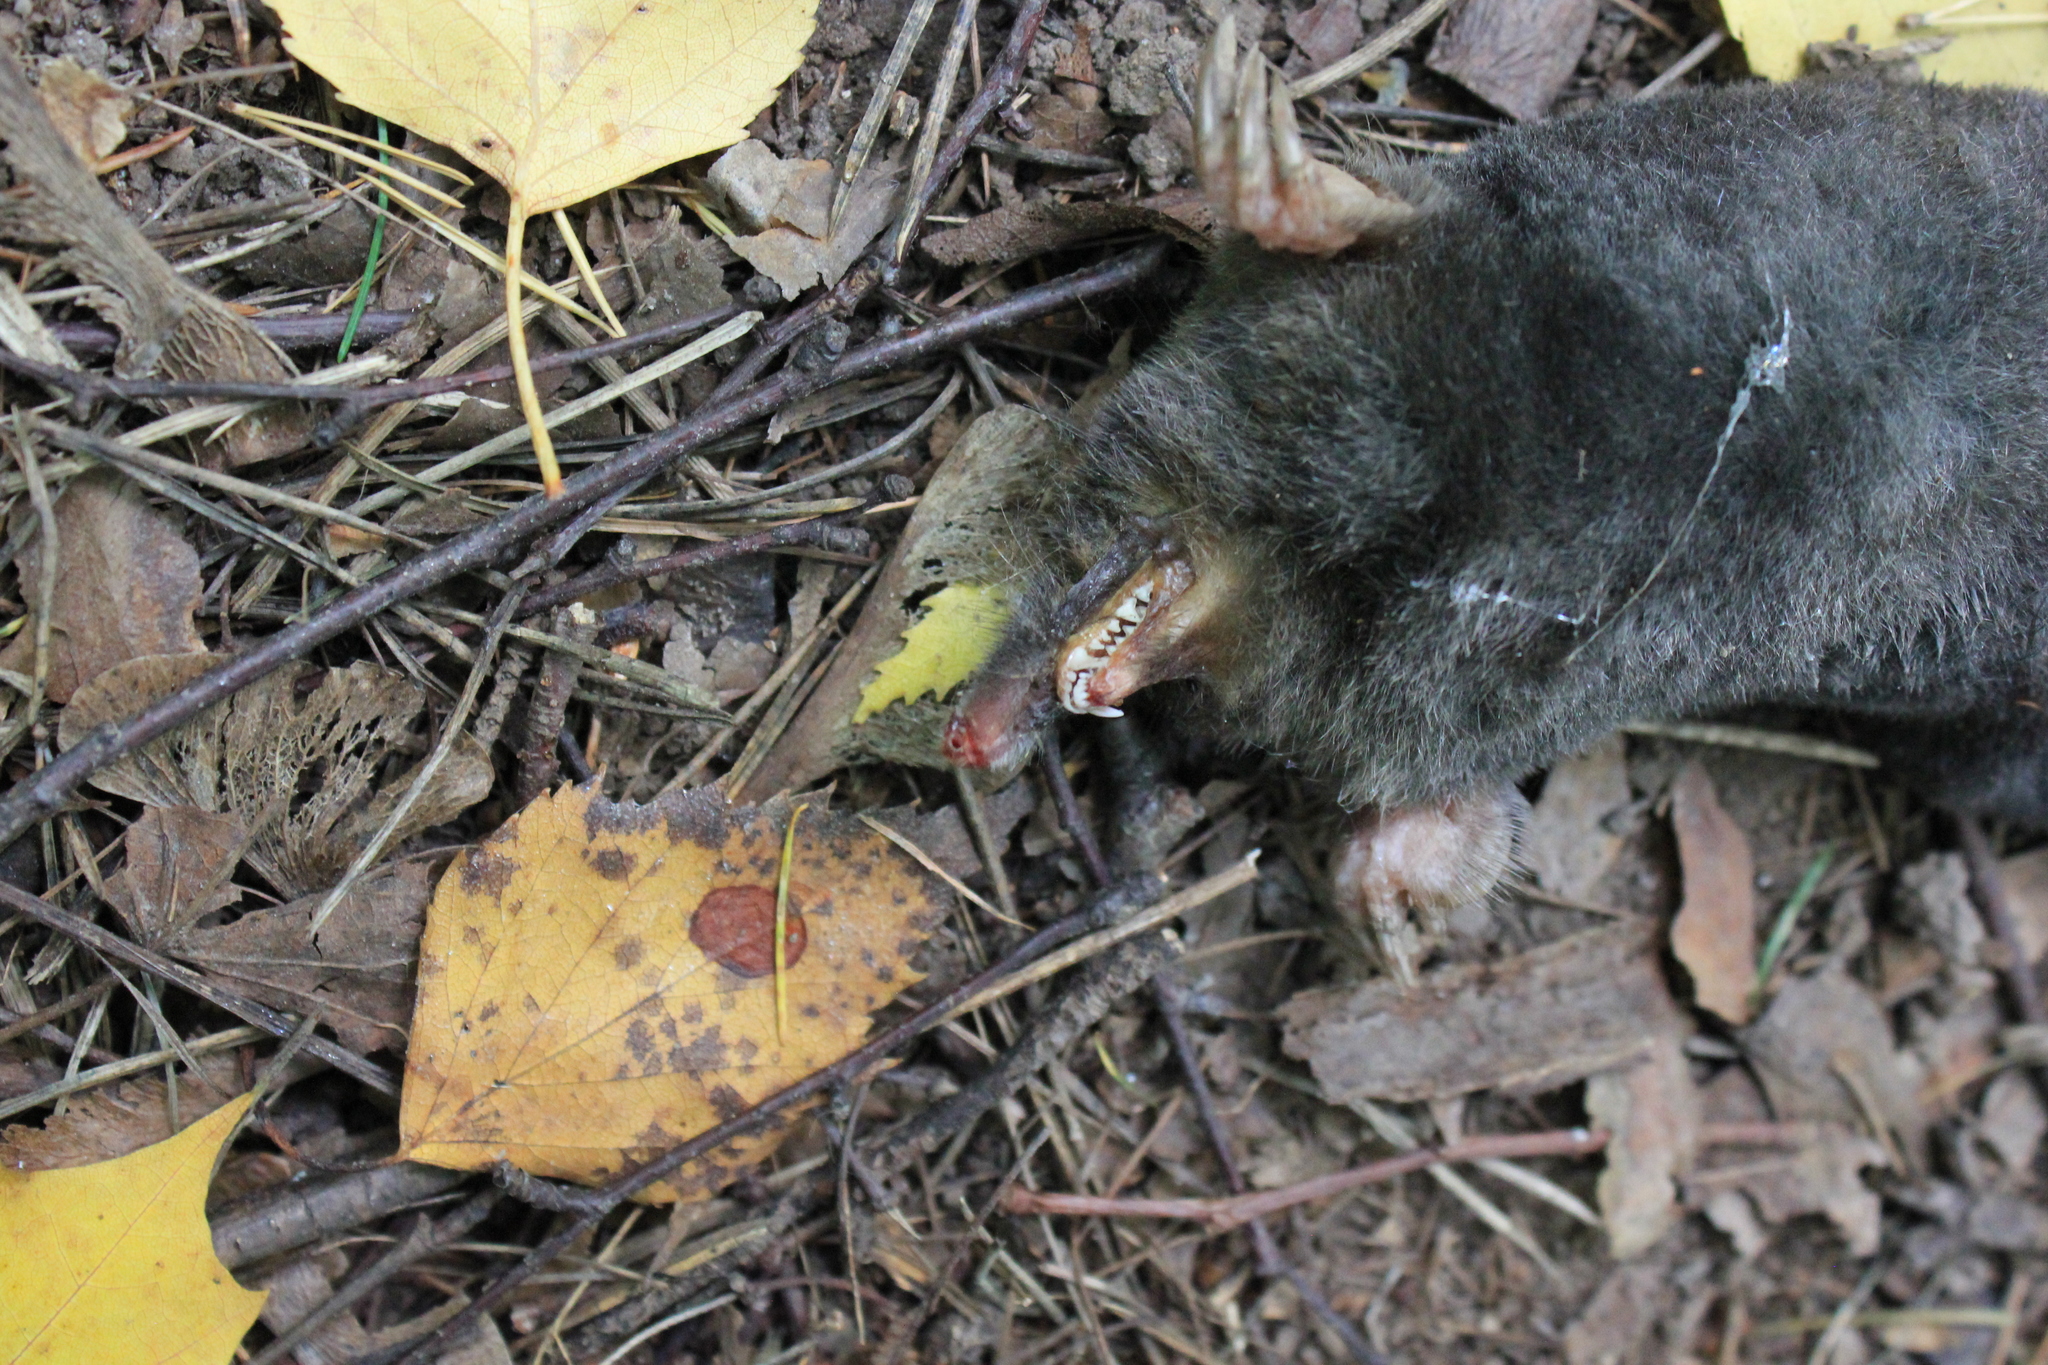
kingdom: Animalia
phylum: Chordata
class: Mammalia
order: Soricomorpha
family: Talpidae
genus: Talpa
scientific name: Talpa europaea
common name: European mole
